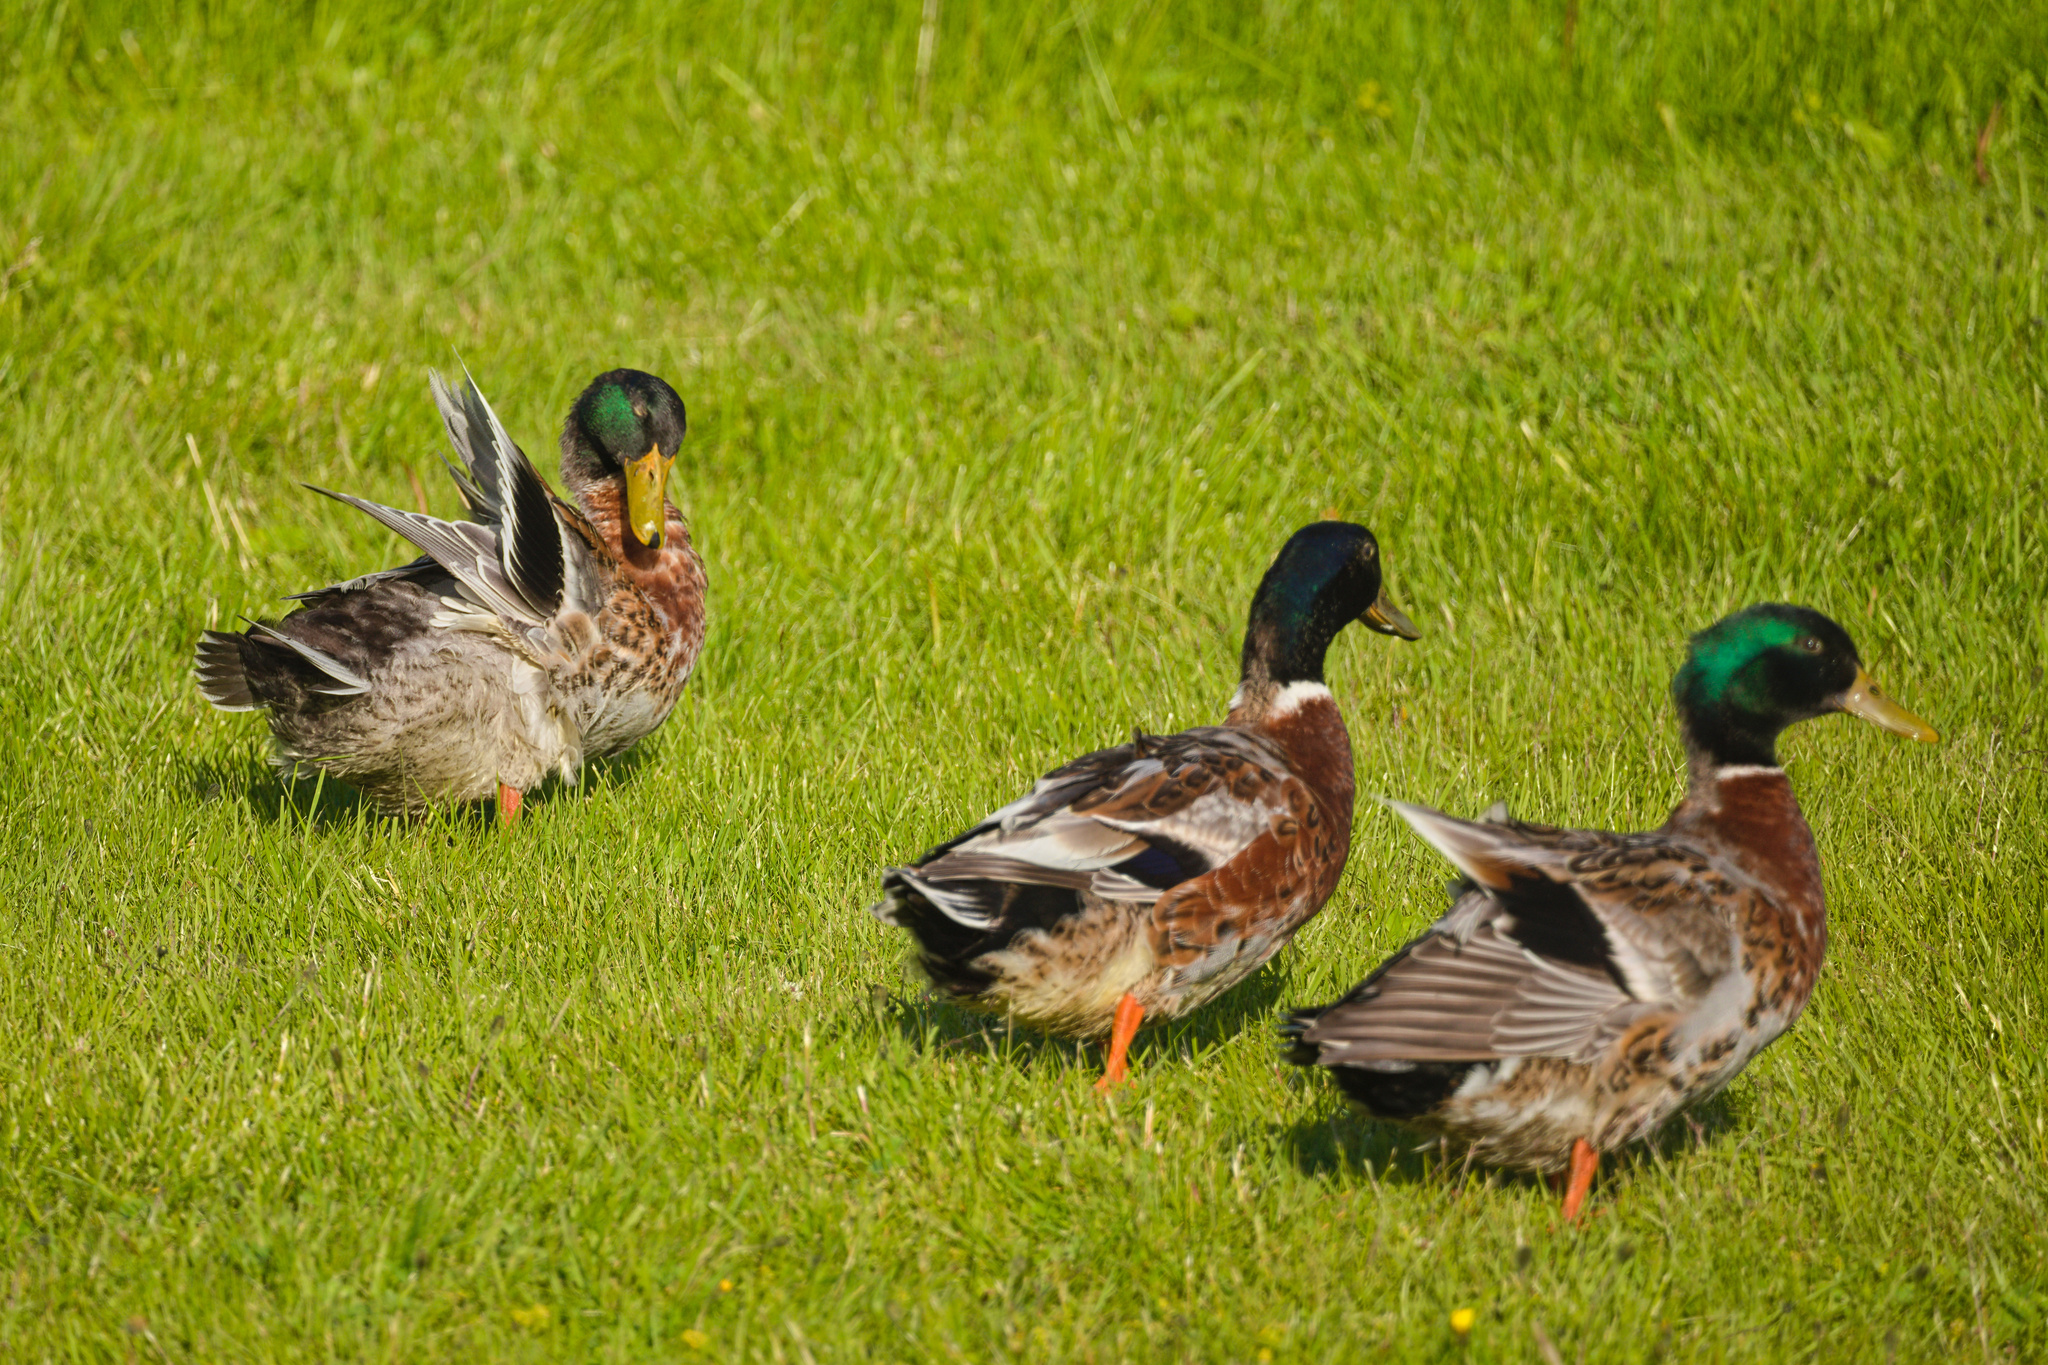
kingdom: Animalia
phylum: Chordata
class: Aves
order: Anseriformes
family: Anatidae
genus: Anas
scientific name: Anas platyrhynchos
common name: Mallard
